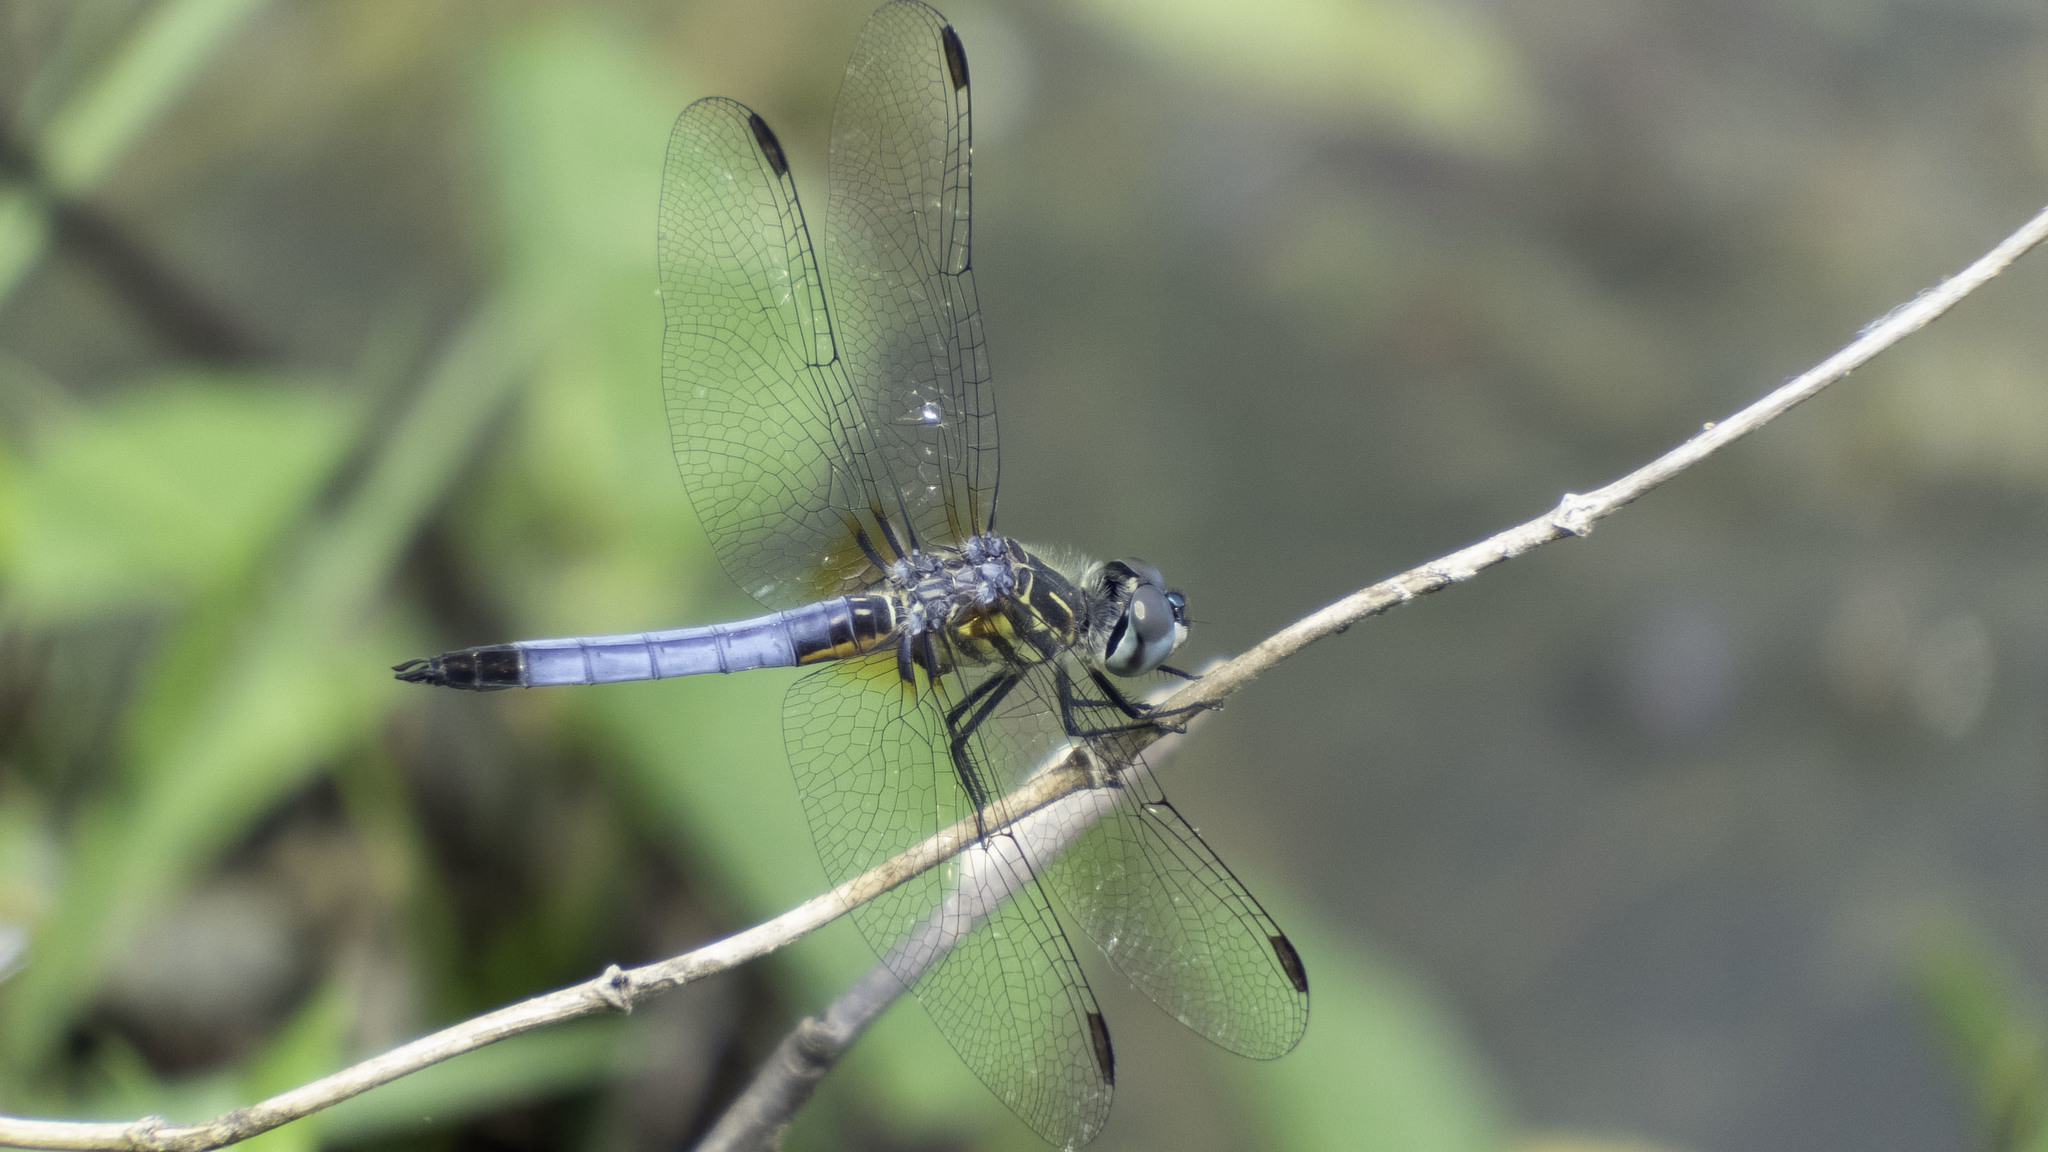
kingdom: Animalia
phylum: Arthropoda
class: Insecta
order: Odonata
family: Libellulidae
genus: Pachydiplax
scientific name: Pachydiplax longipennis
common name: Blue dasher
